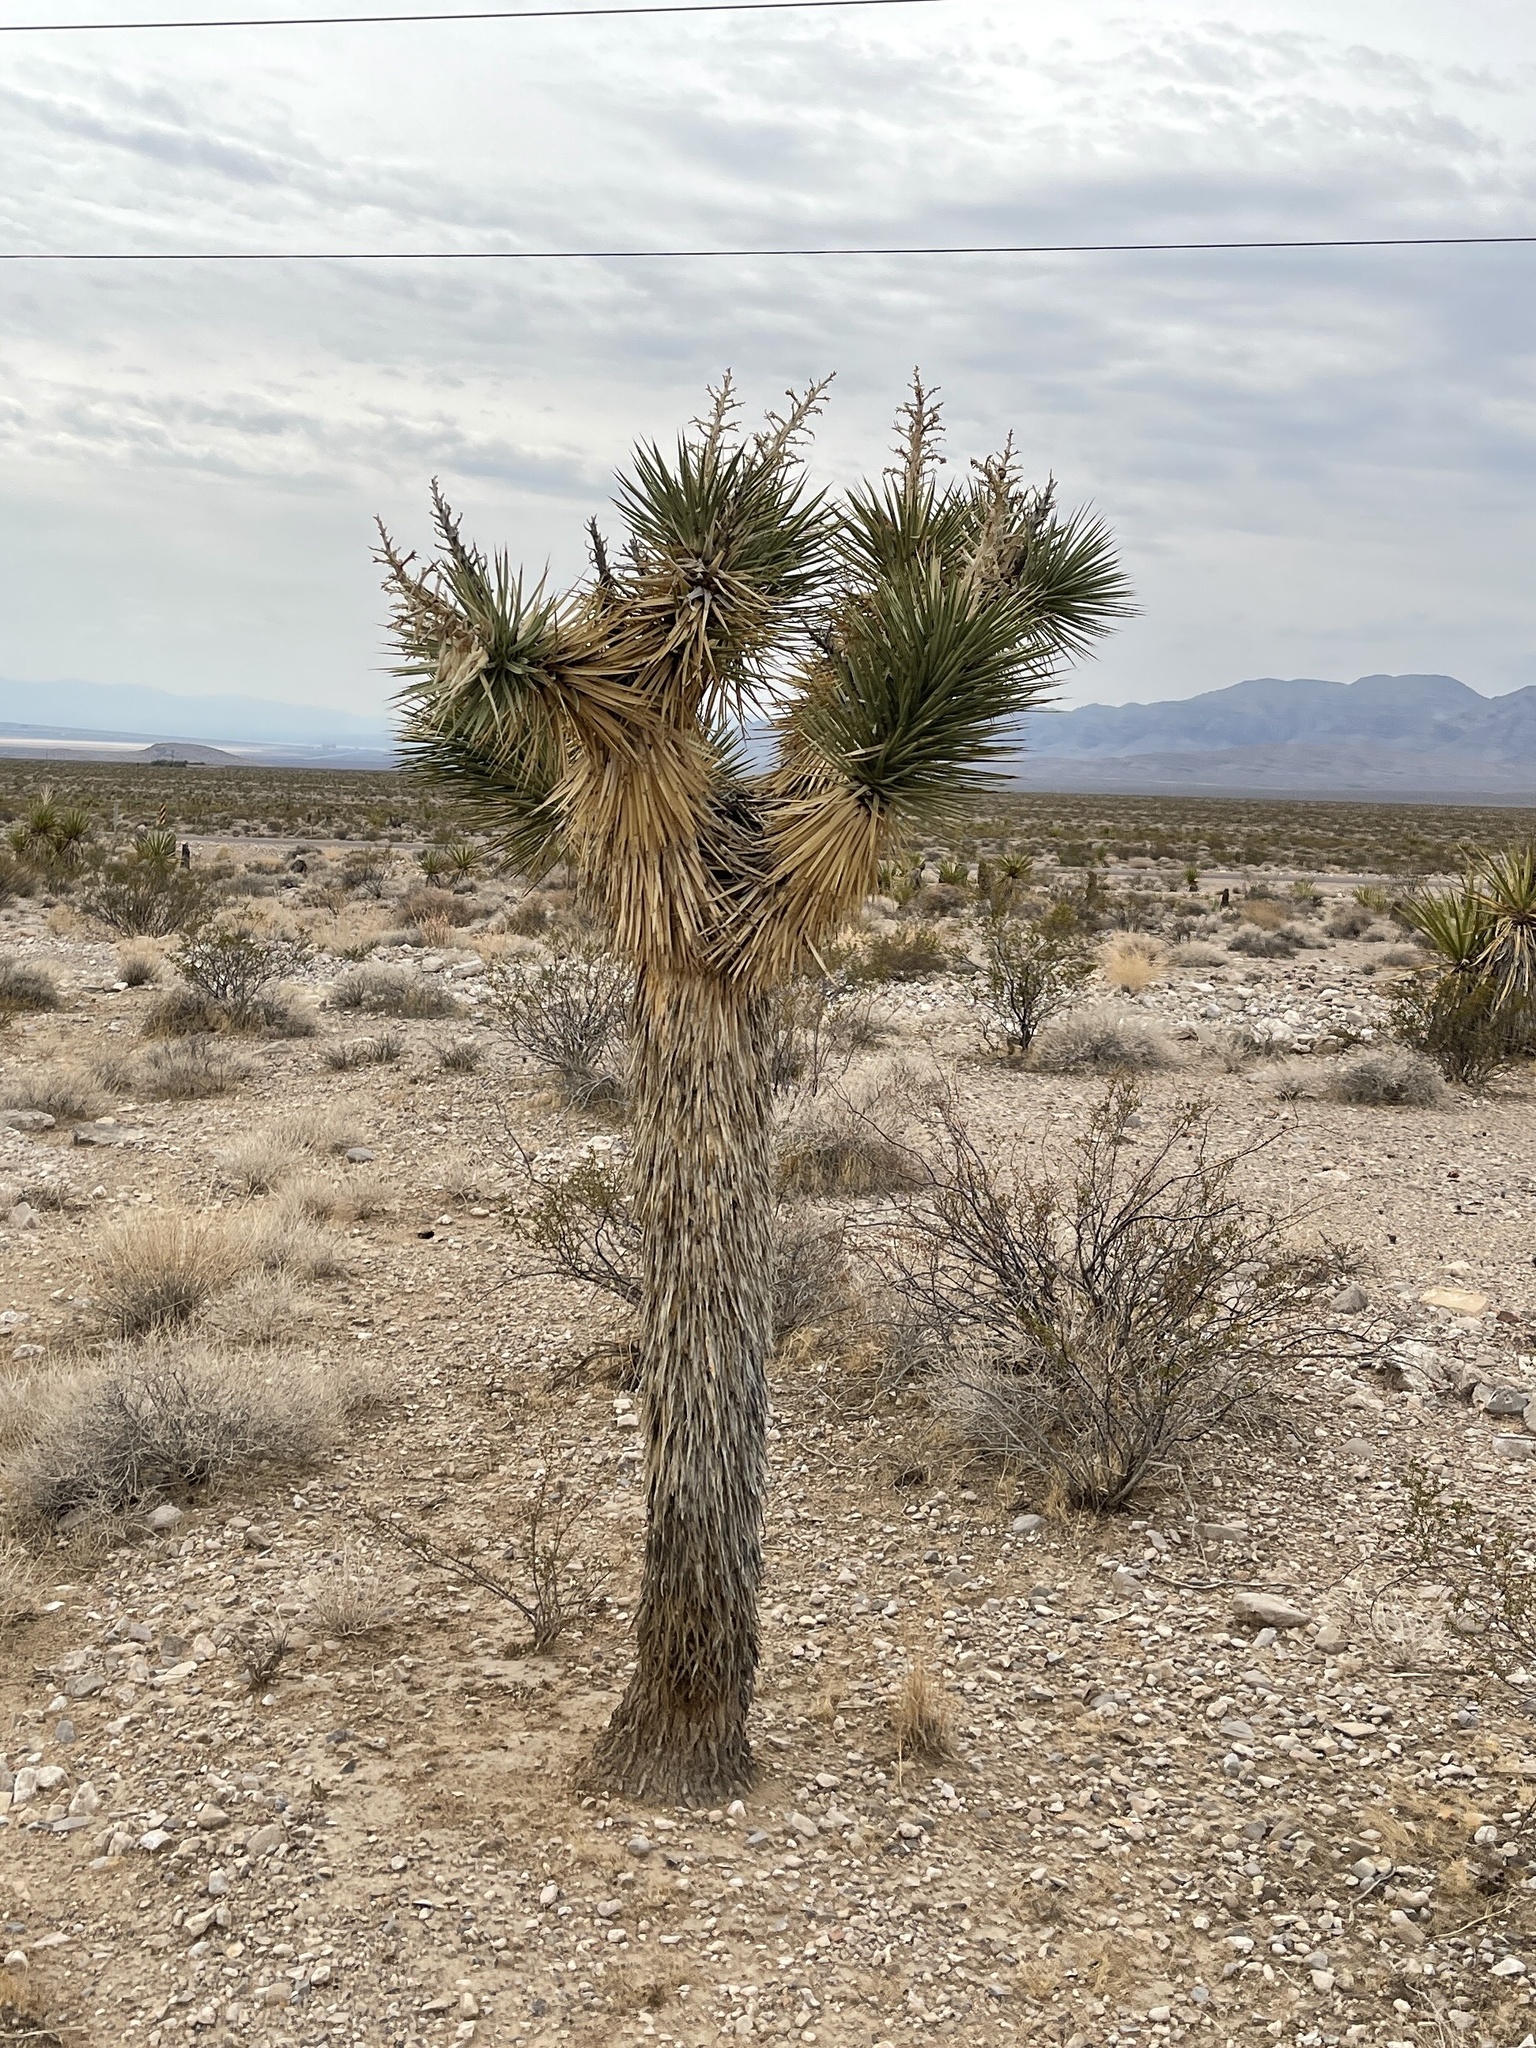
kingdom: Plantae
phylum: Tracheophyta
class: Liliopsida
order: Asparagales
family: Asparagaceae
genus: Yucca
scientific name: Yucca brevifolia
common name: Joshua tree
